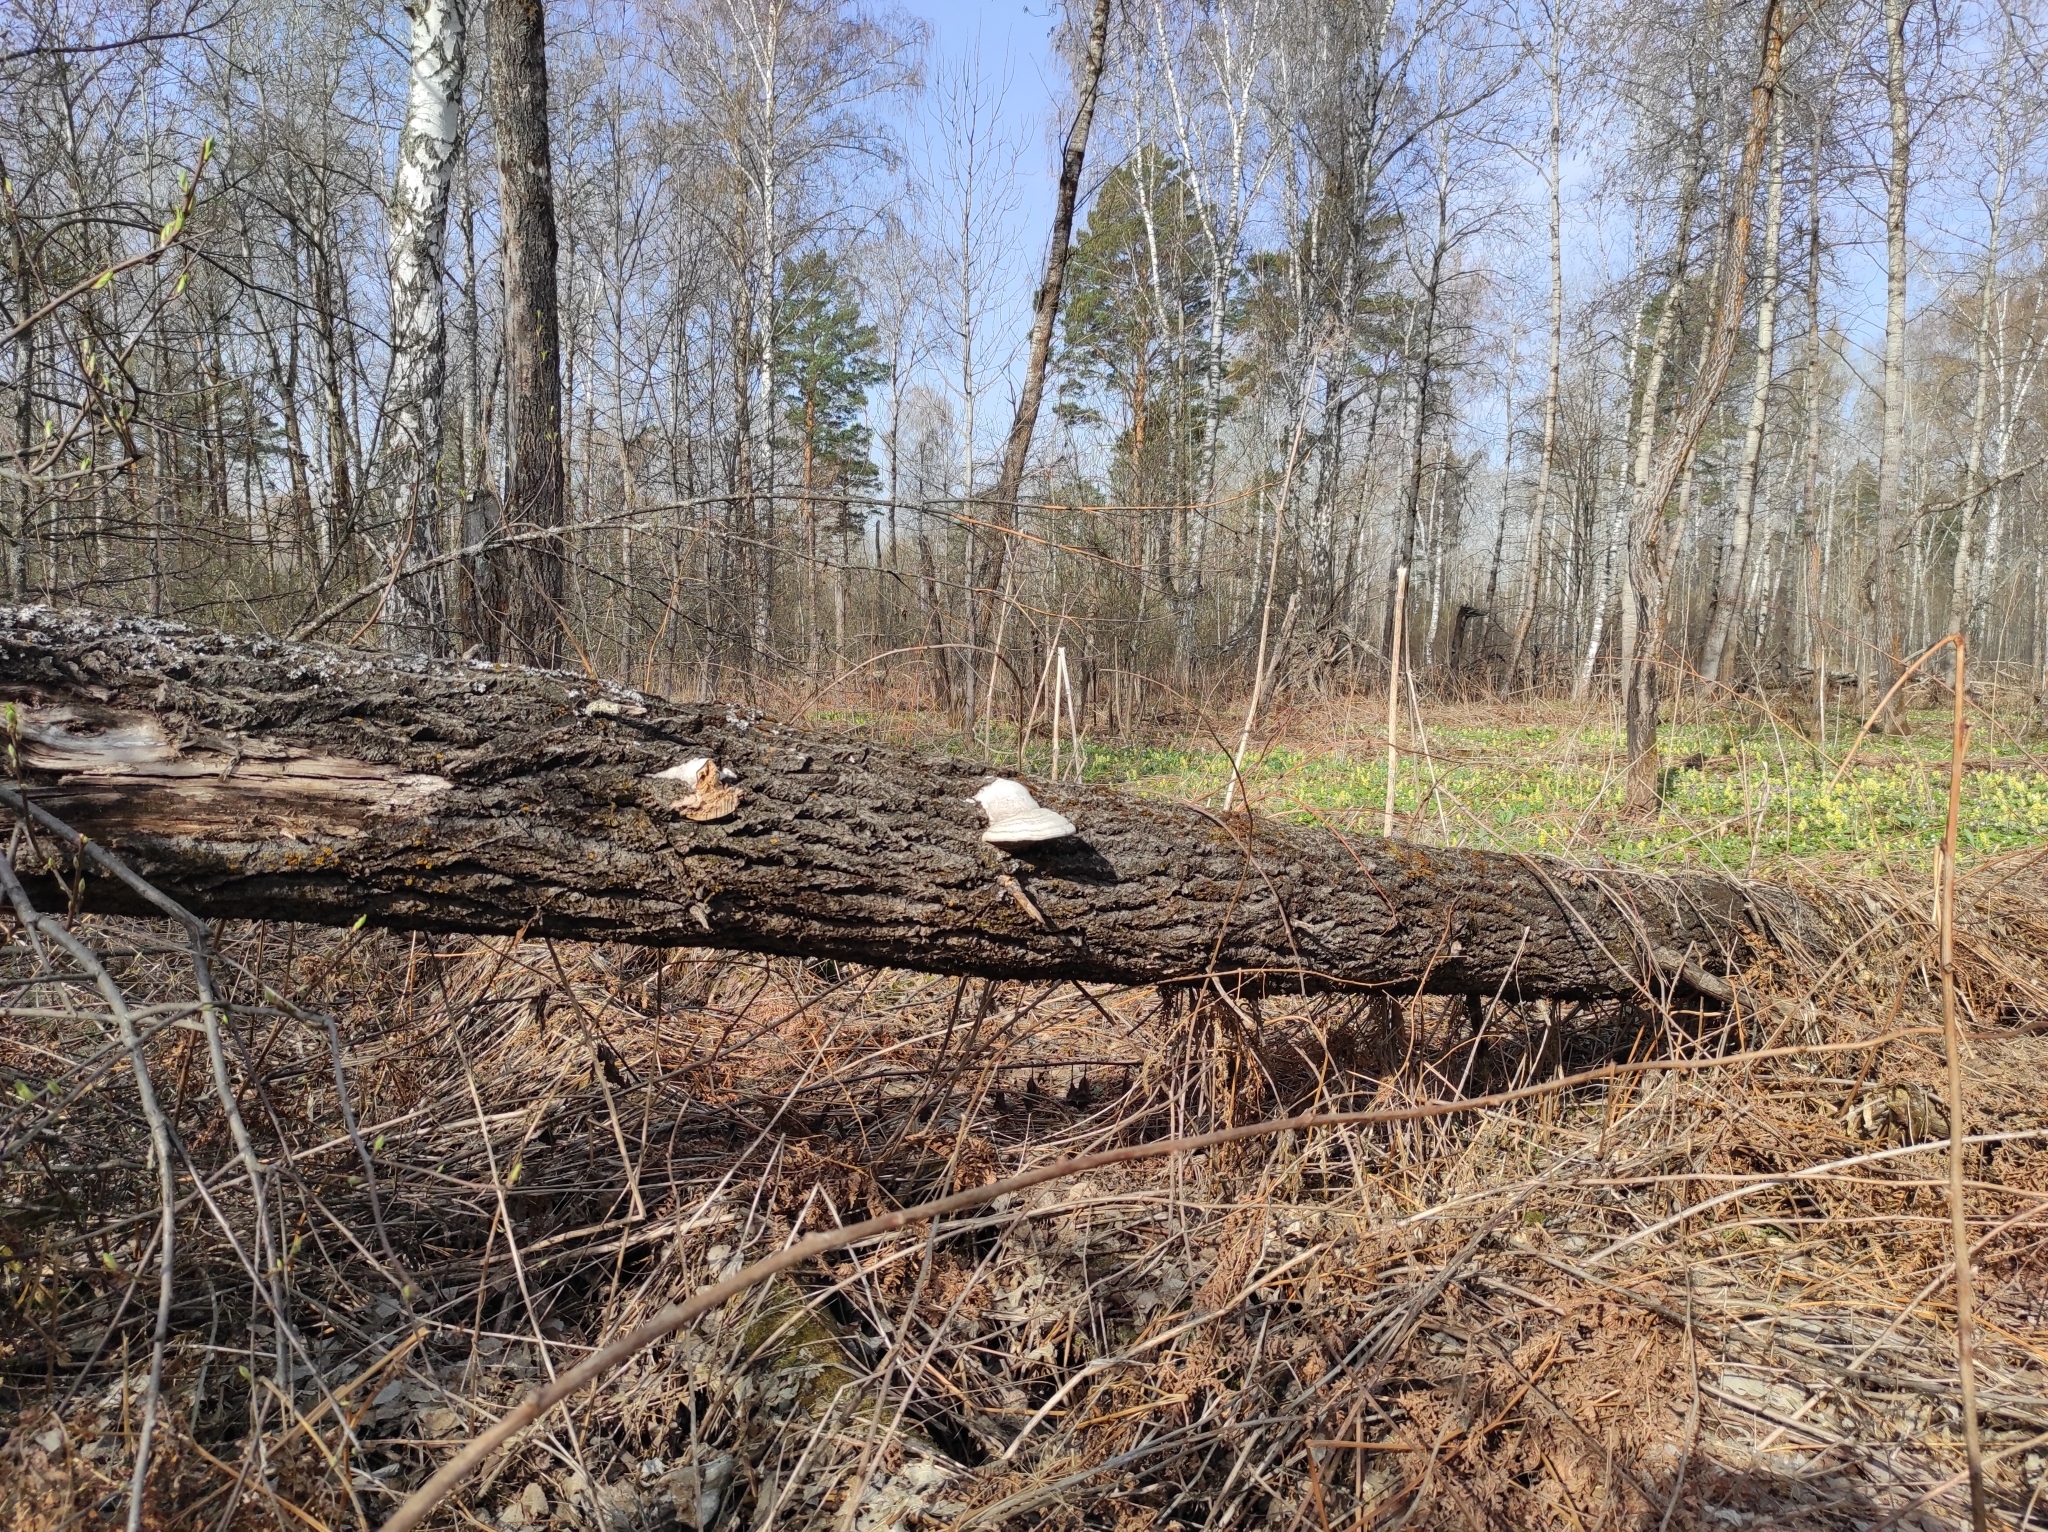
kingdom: Plantae
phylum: Tracheophyta
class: Magnoliopsida
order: Malpighiales
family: Salicaceae
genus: Populus
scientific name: Populus tremula
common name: European aspen
